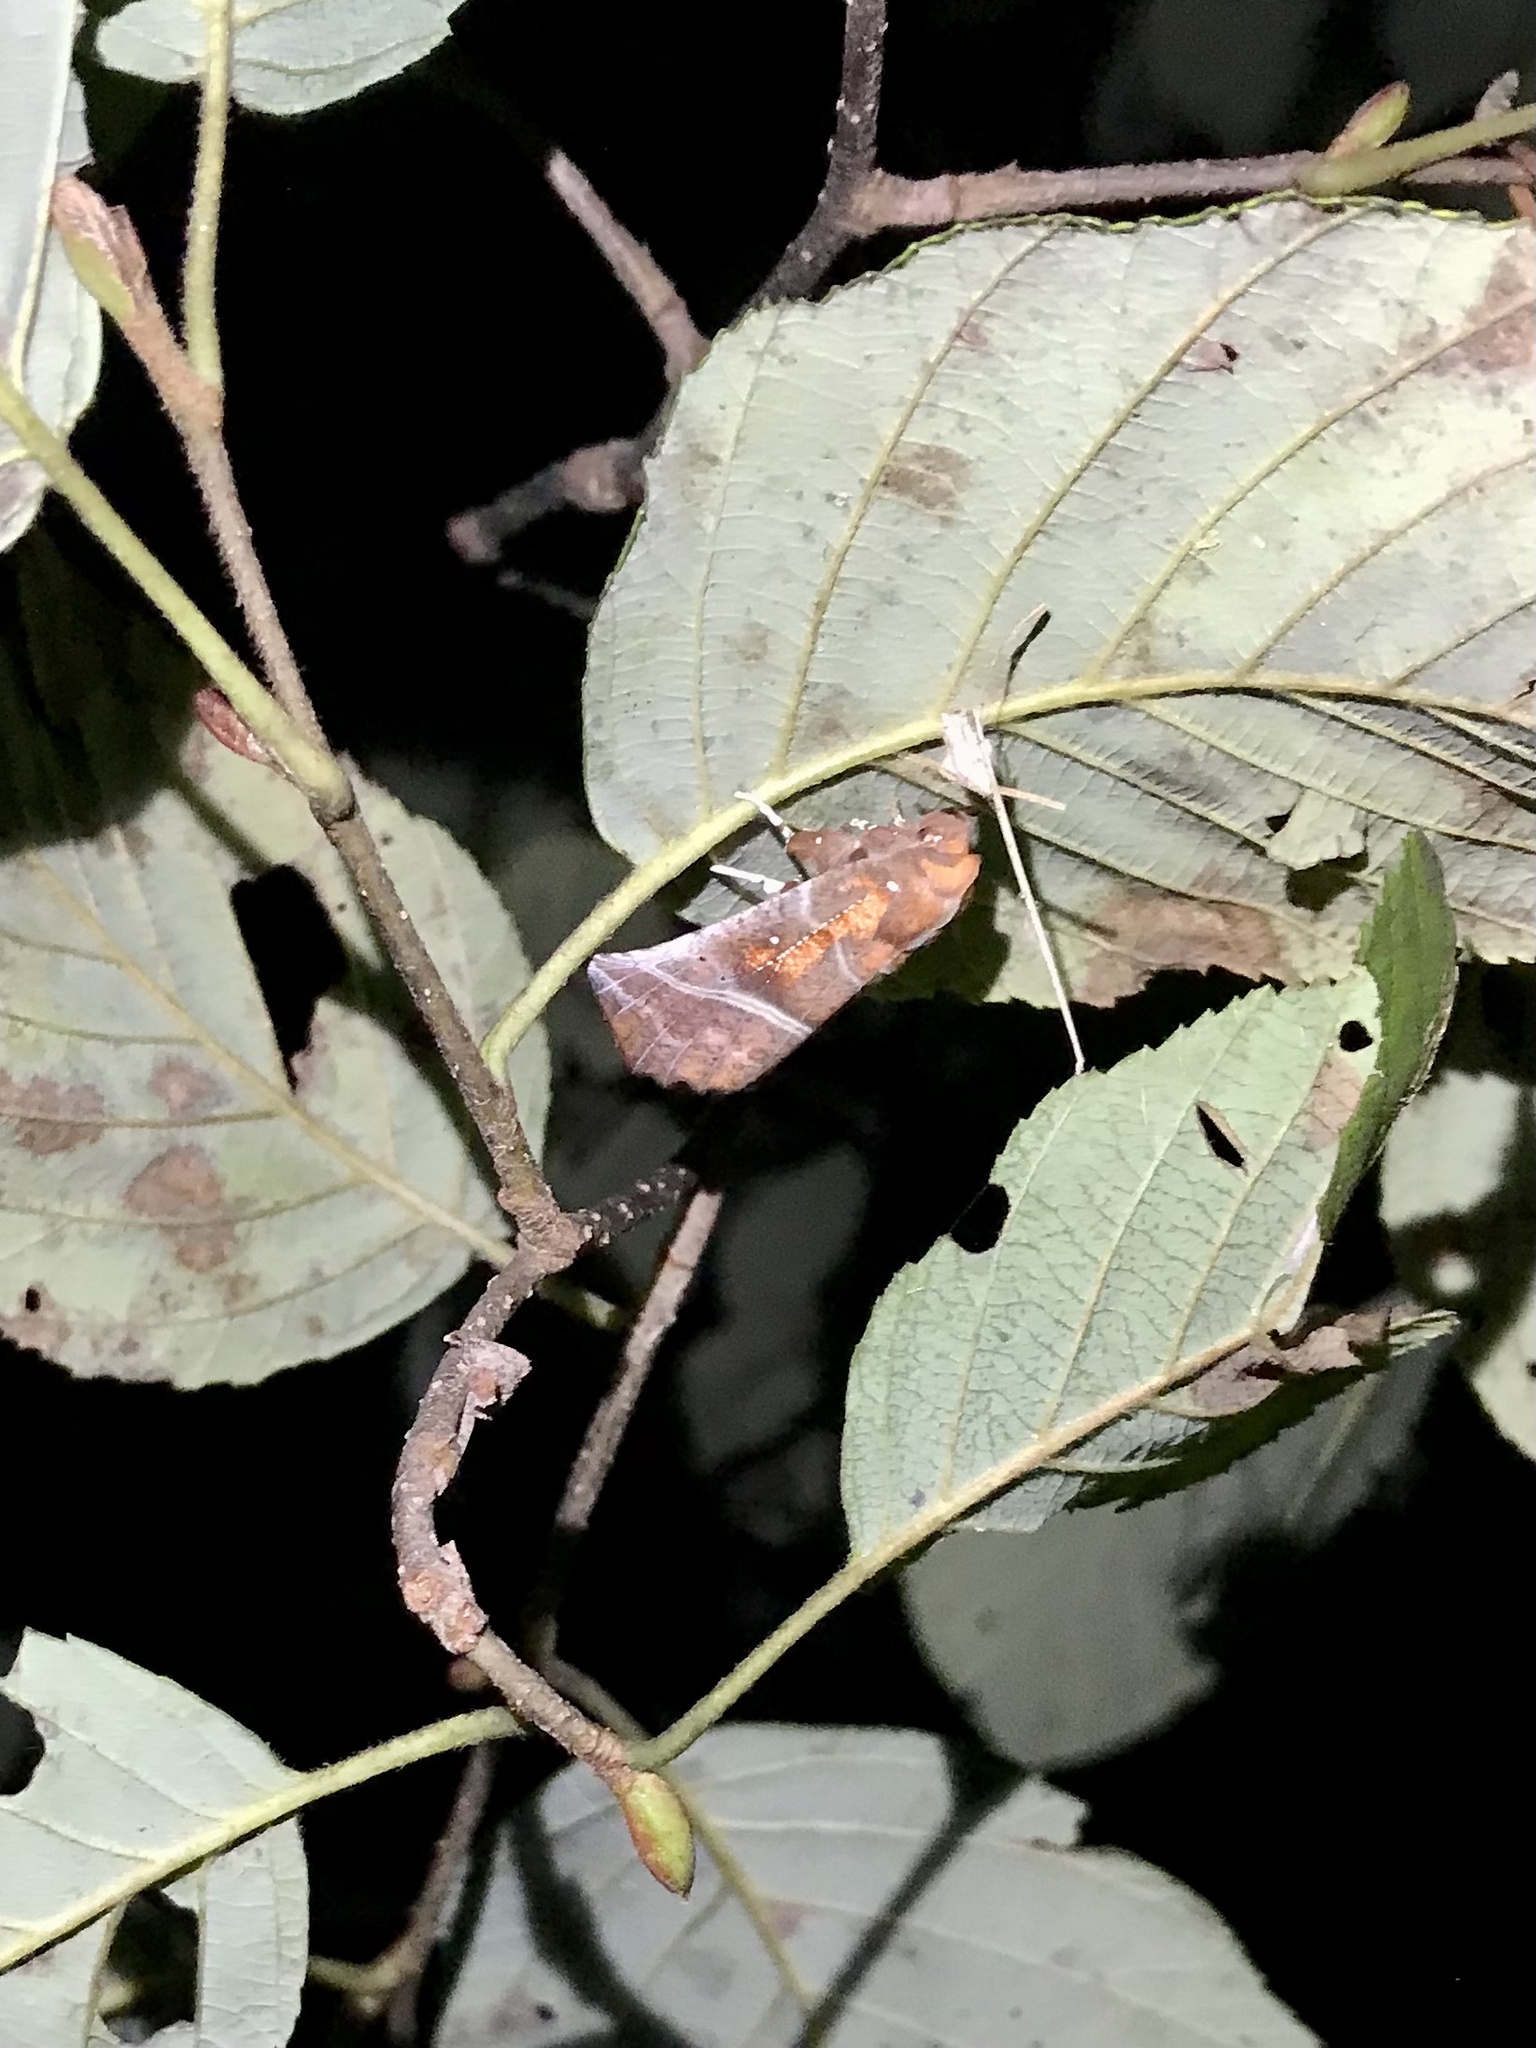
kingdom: Animalia
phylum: Arthropoda
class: Insecta
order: Lepidoptera
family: Erebidae
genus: Scoliopteryx
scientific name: Scoliopteryx libatrix
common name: Herald
